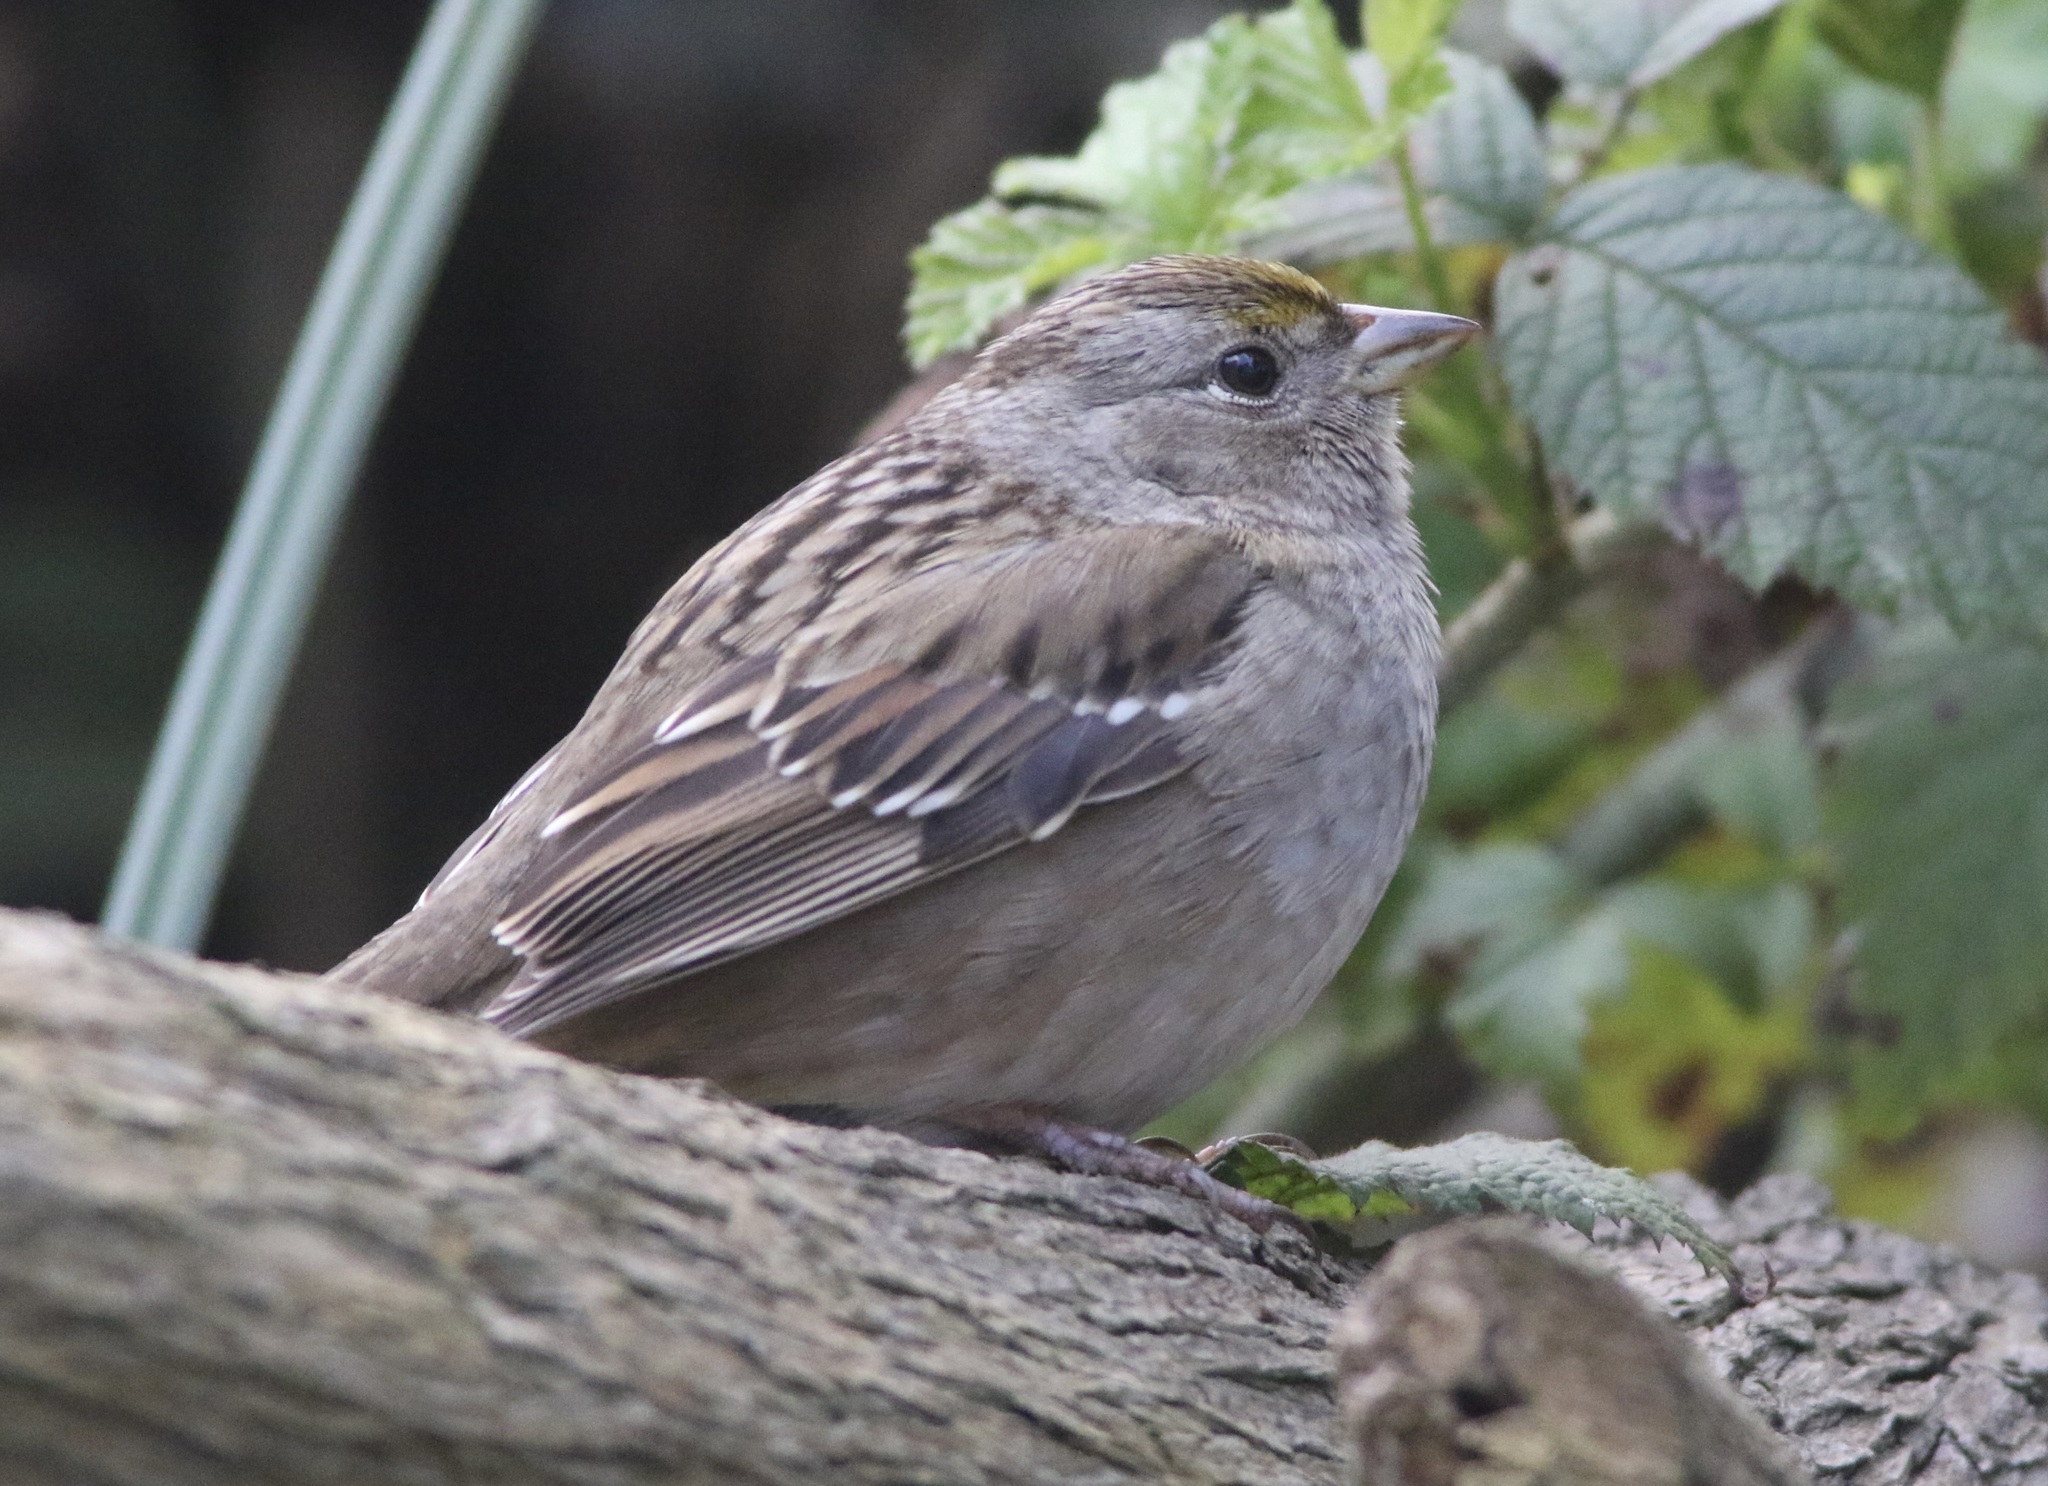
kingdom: Animalia
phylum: Chordata
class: Aves
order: Passeriformes
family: Passerellidae
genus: Zonotrichia
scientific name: Zonotrichia atricapilla
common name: Golden-crowned sparrow
